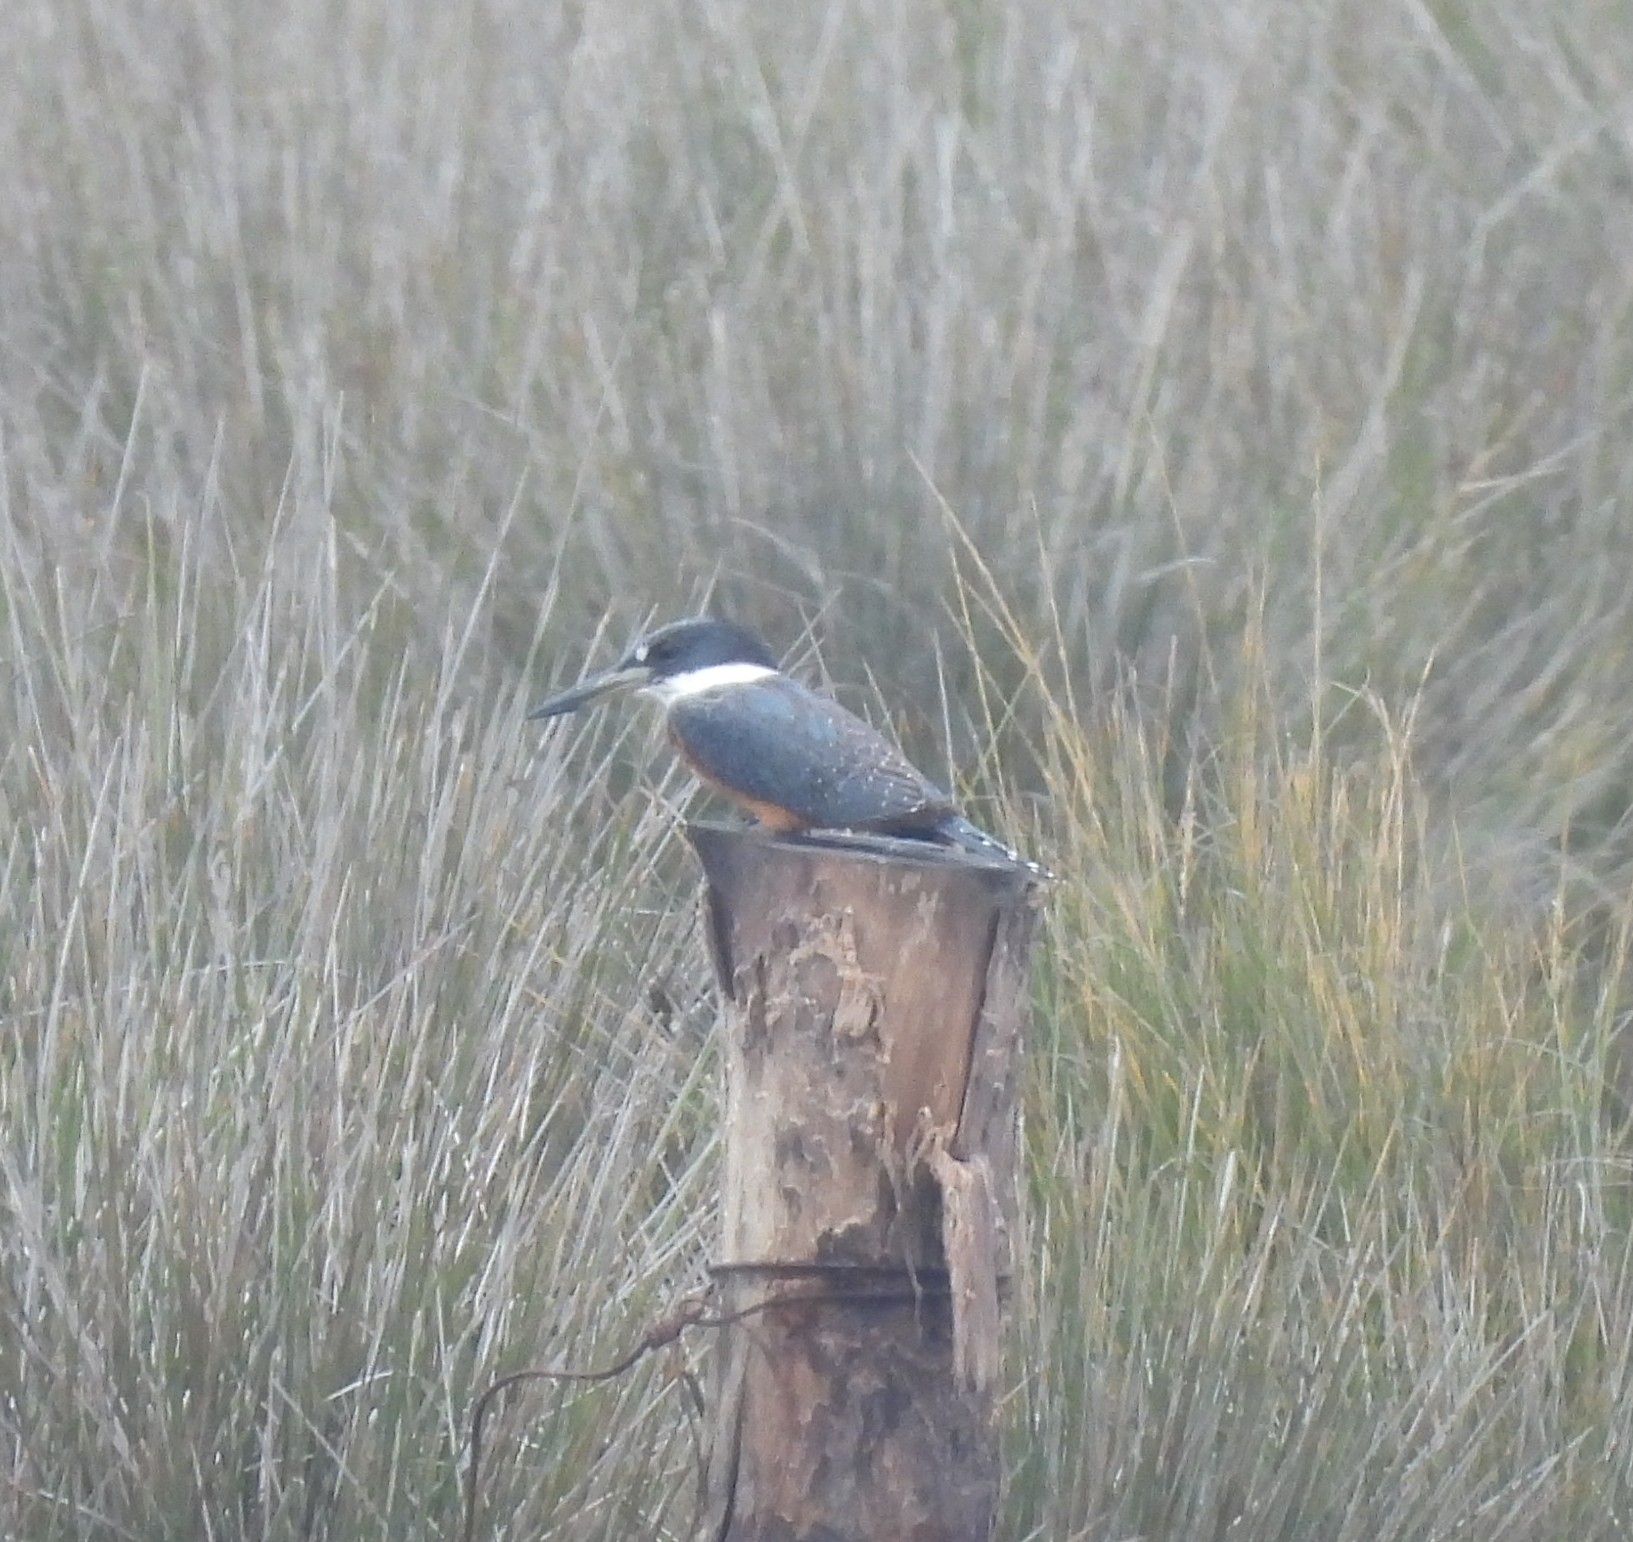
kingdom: Animalia
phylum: Chordata
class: Aves
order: Coraciiformes
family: Alcedinidae
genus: Megaceryle
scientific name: Megaceryle torquata
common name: Ringed kingfisher
